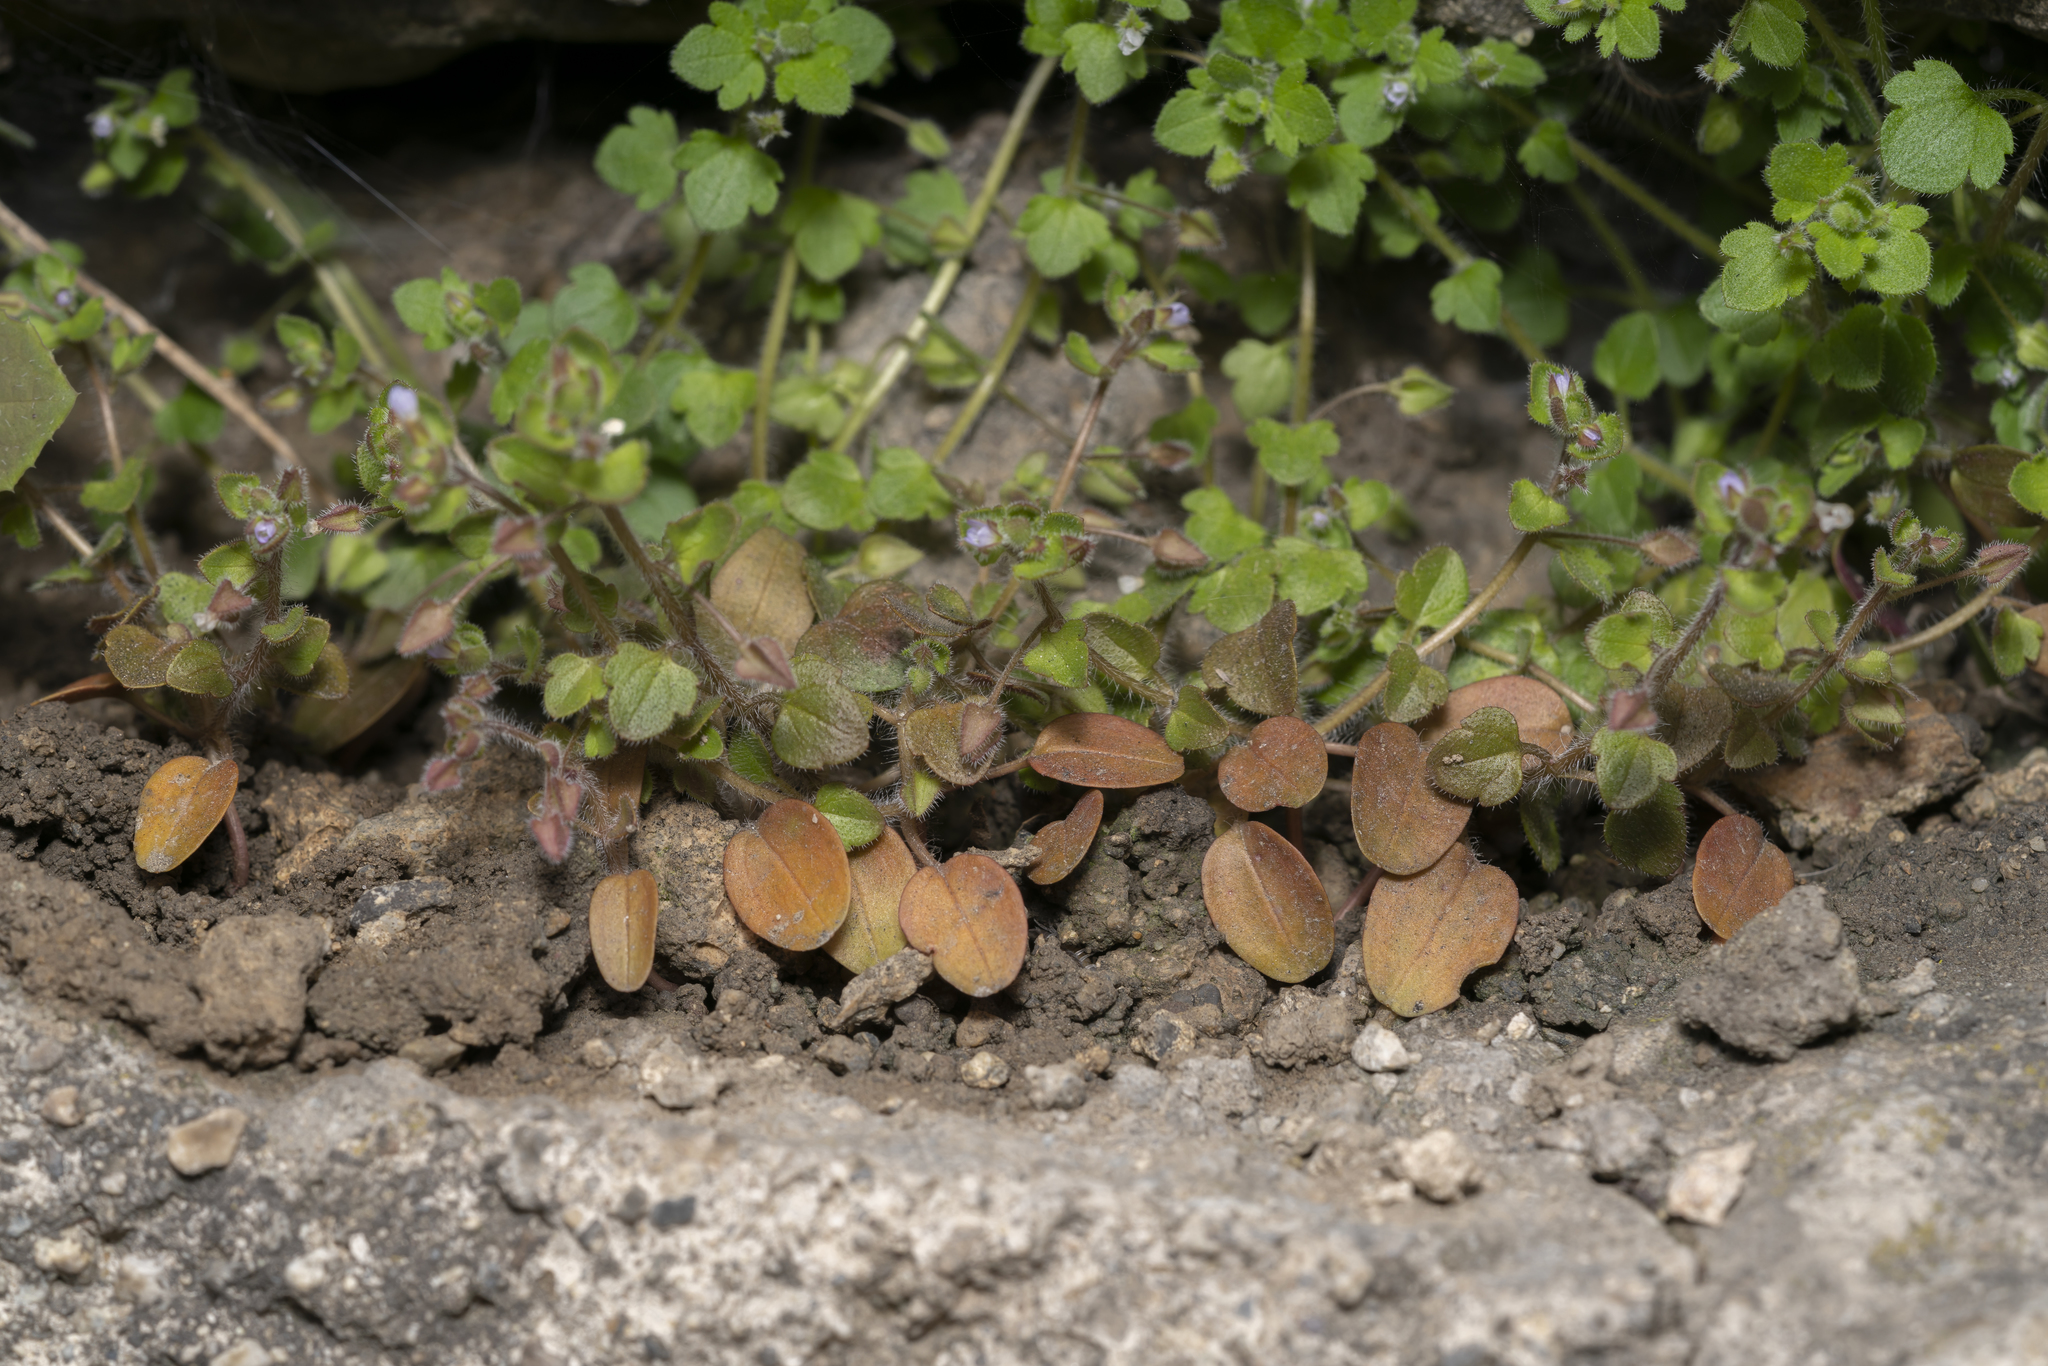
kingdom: Plantae
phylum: Tracheophyta
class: Magnoliopsida
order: Lamiales
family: Plantaginaceae
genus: Veronica
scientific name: Veronica hederifolia
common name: Ivy-leaved speedwell
